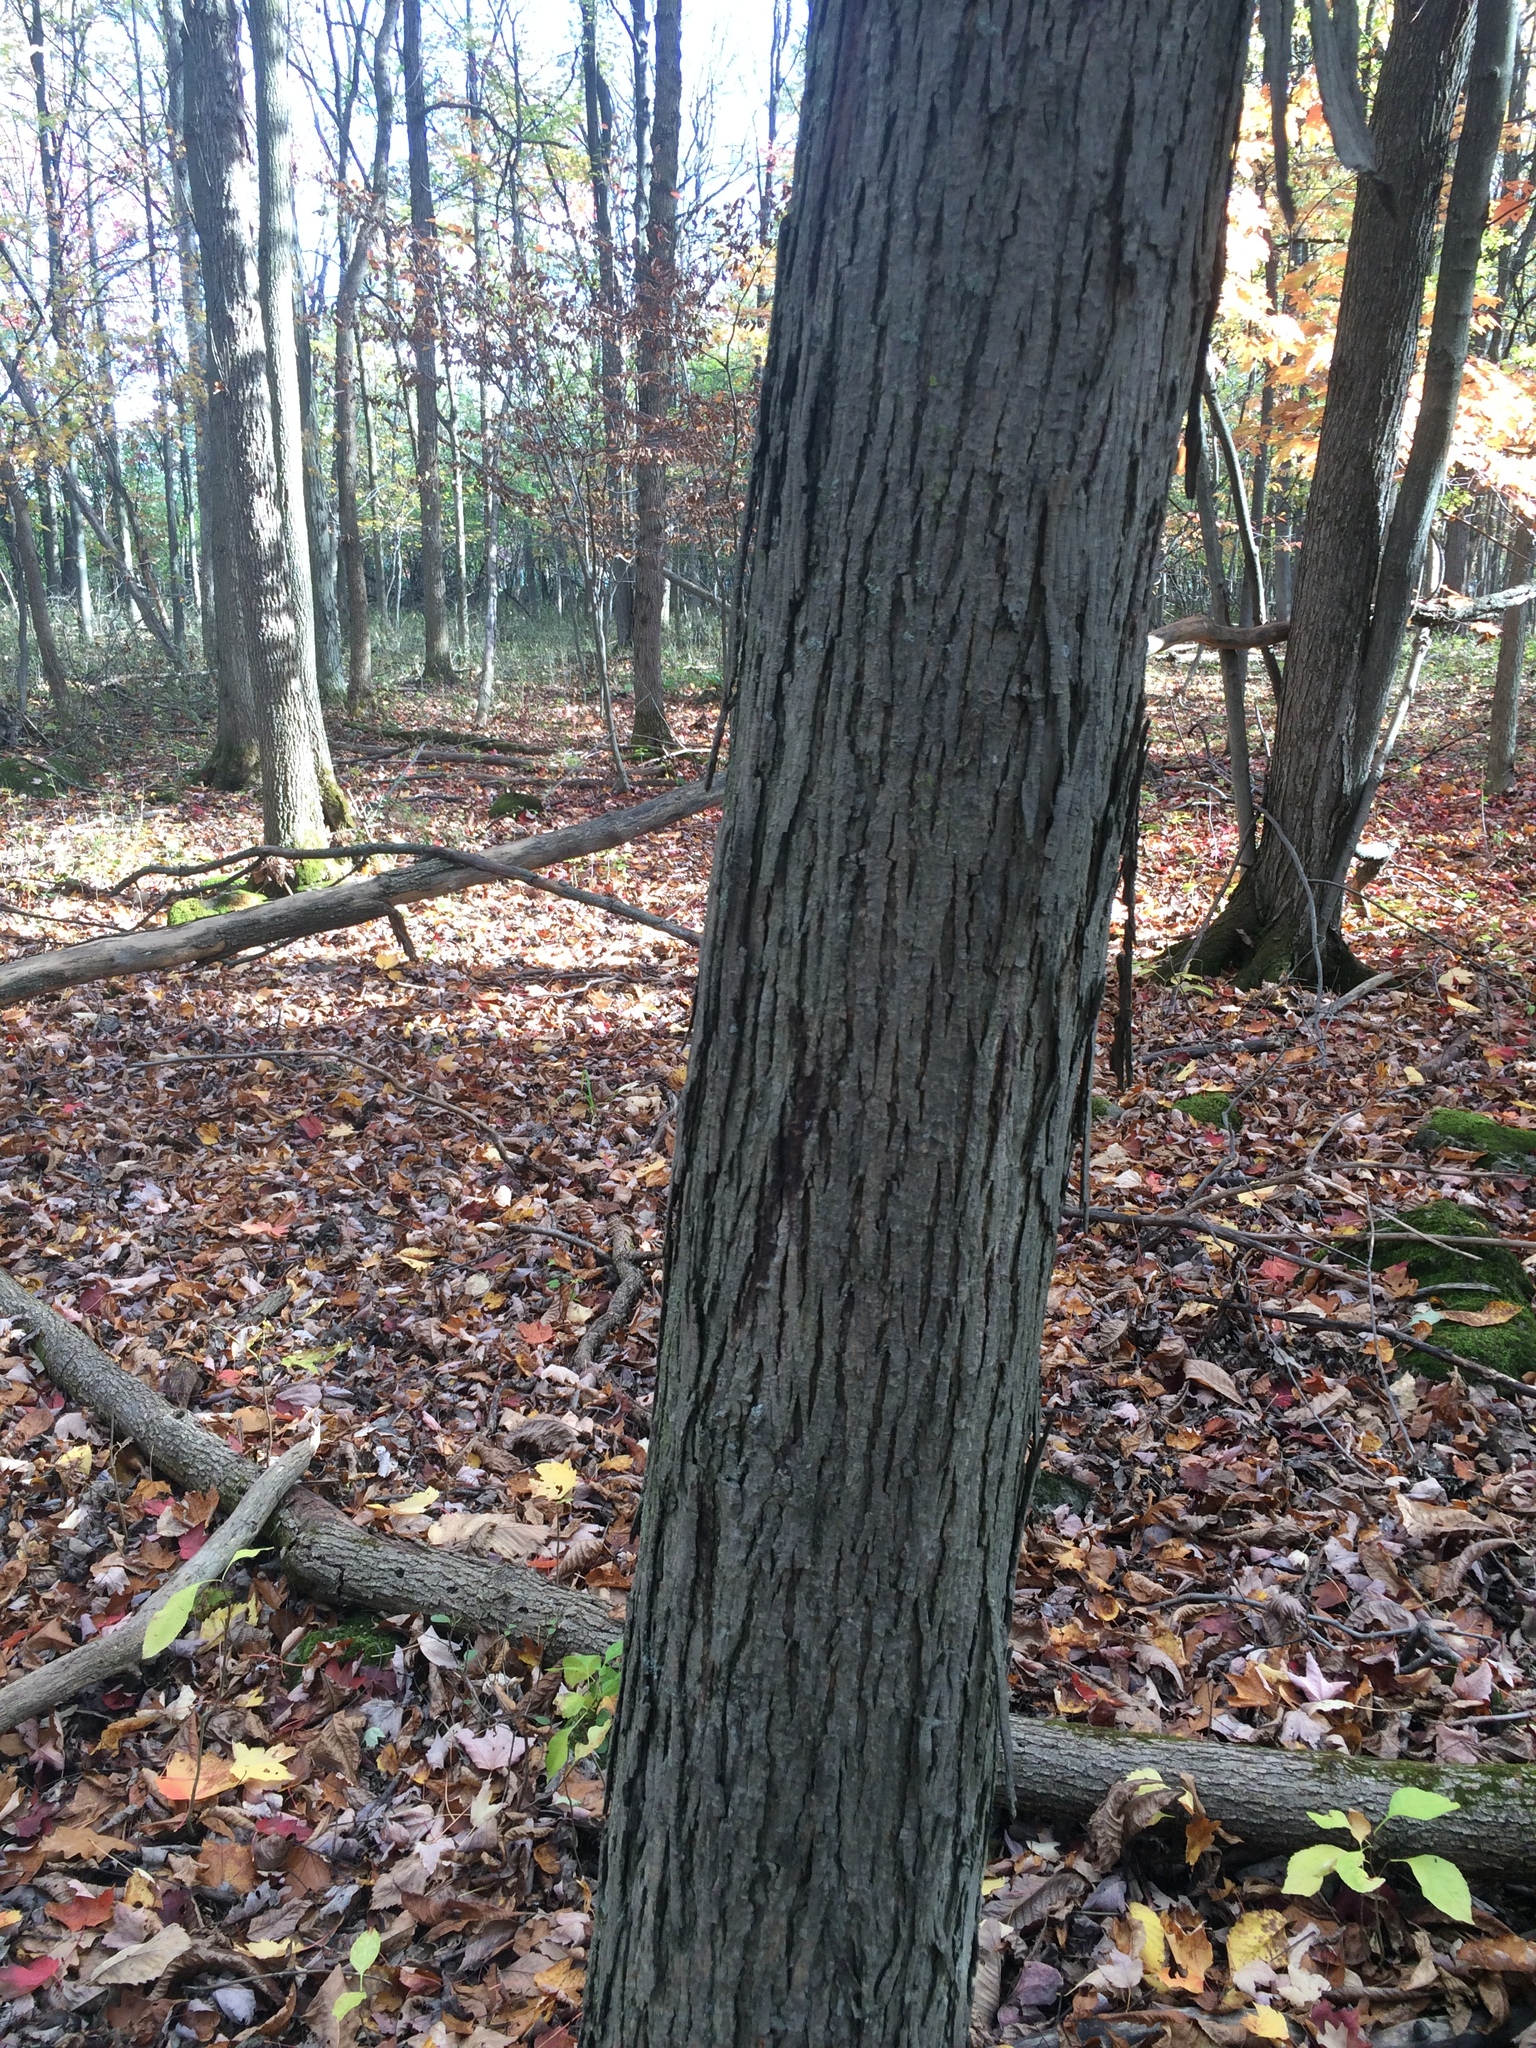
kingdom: Plantae
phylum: Tracheophyta
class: Magnoliopsida
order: Fagales
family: Juglandaceae
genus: Carya
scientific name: Carya ovata
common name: Shagbark hickory
